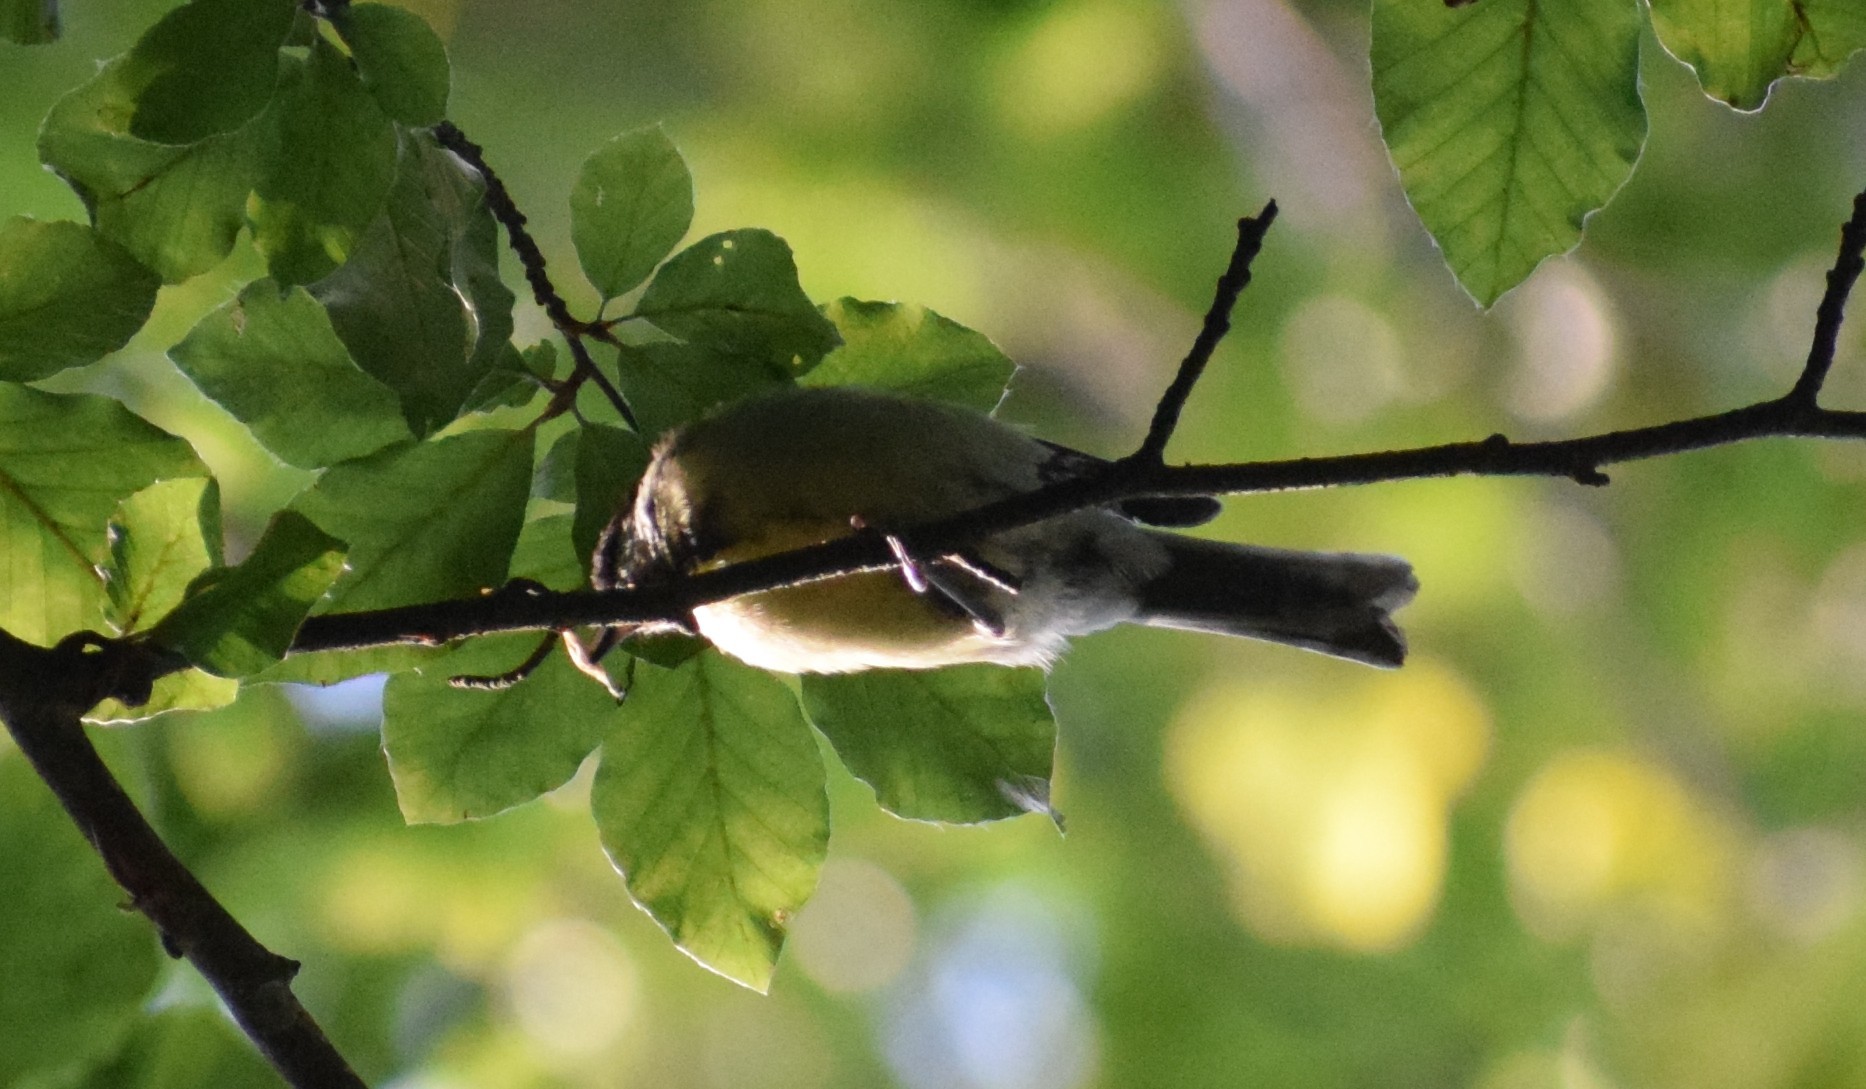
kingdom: Animalia
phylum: Chordata
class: Aves
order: Passeriformes
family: Paridae
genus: Parus
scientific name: Parus major
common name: Great tit
